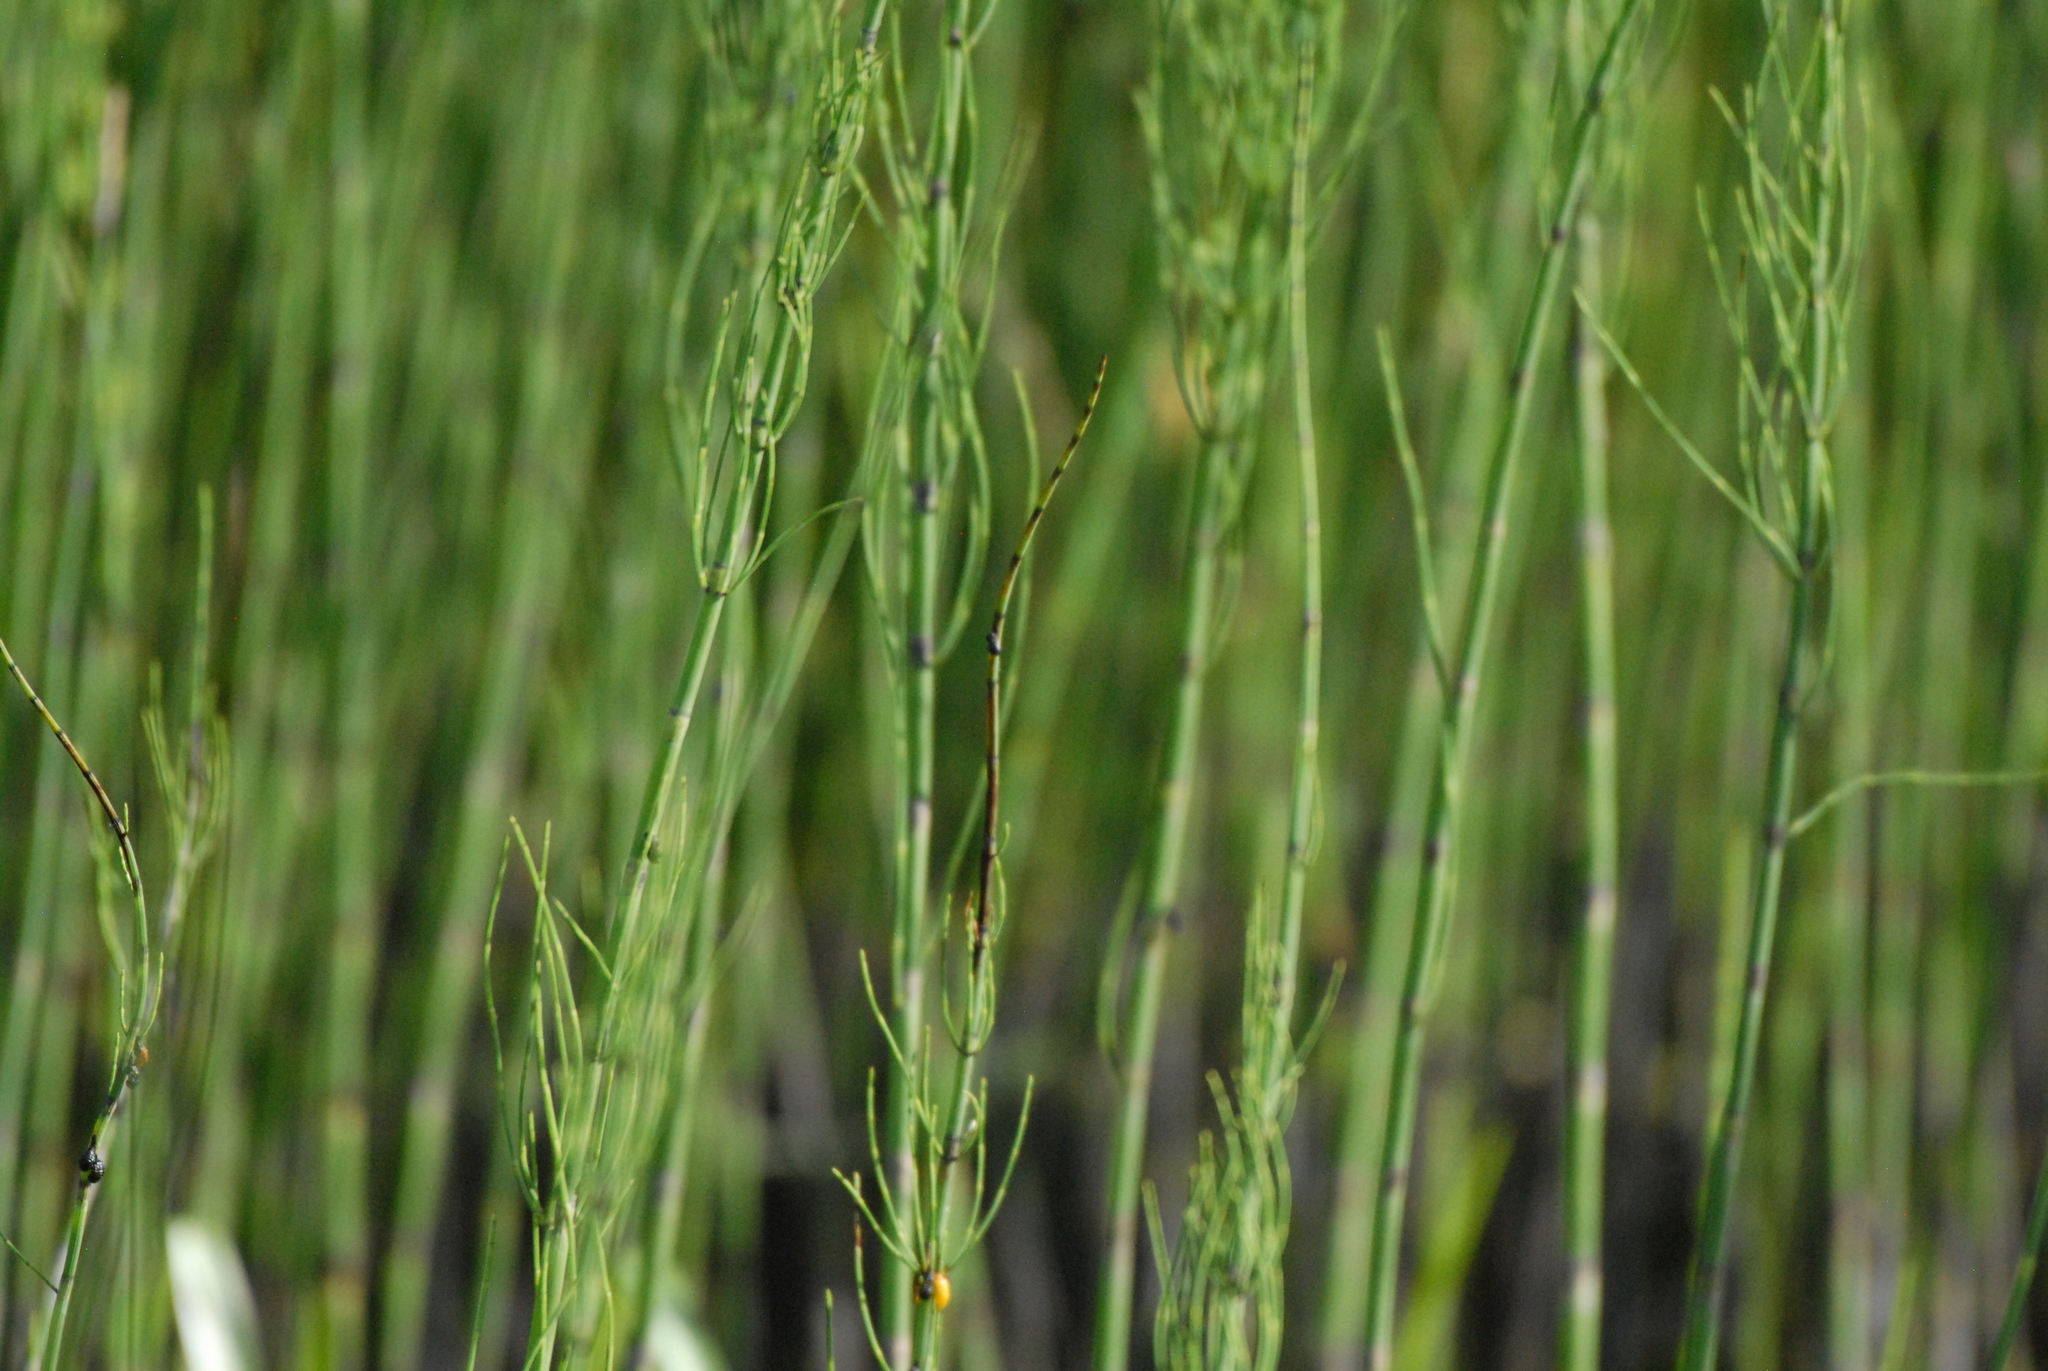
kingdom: Plantae
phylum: Tracheophyta
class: Polypodiopsida
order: Equisetales
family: Equisetaceae
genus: Equisetum
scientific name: Equisetum fluviatile
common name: Water horsetail
